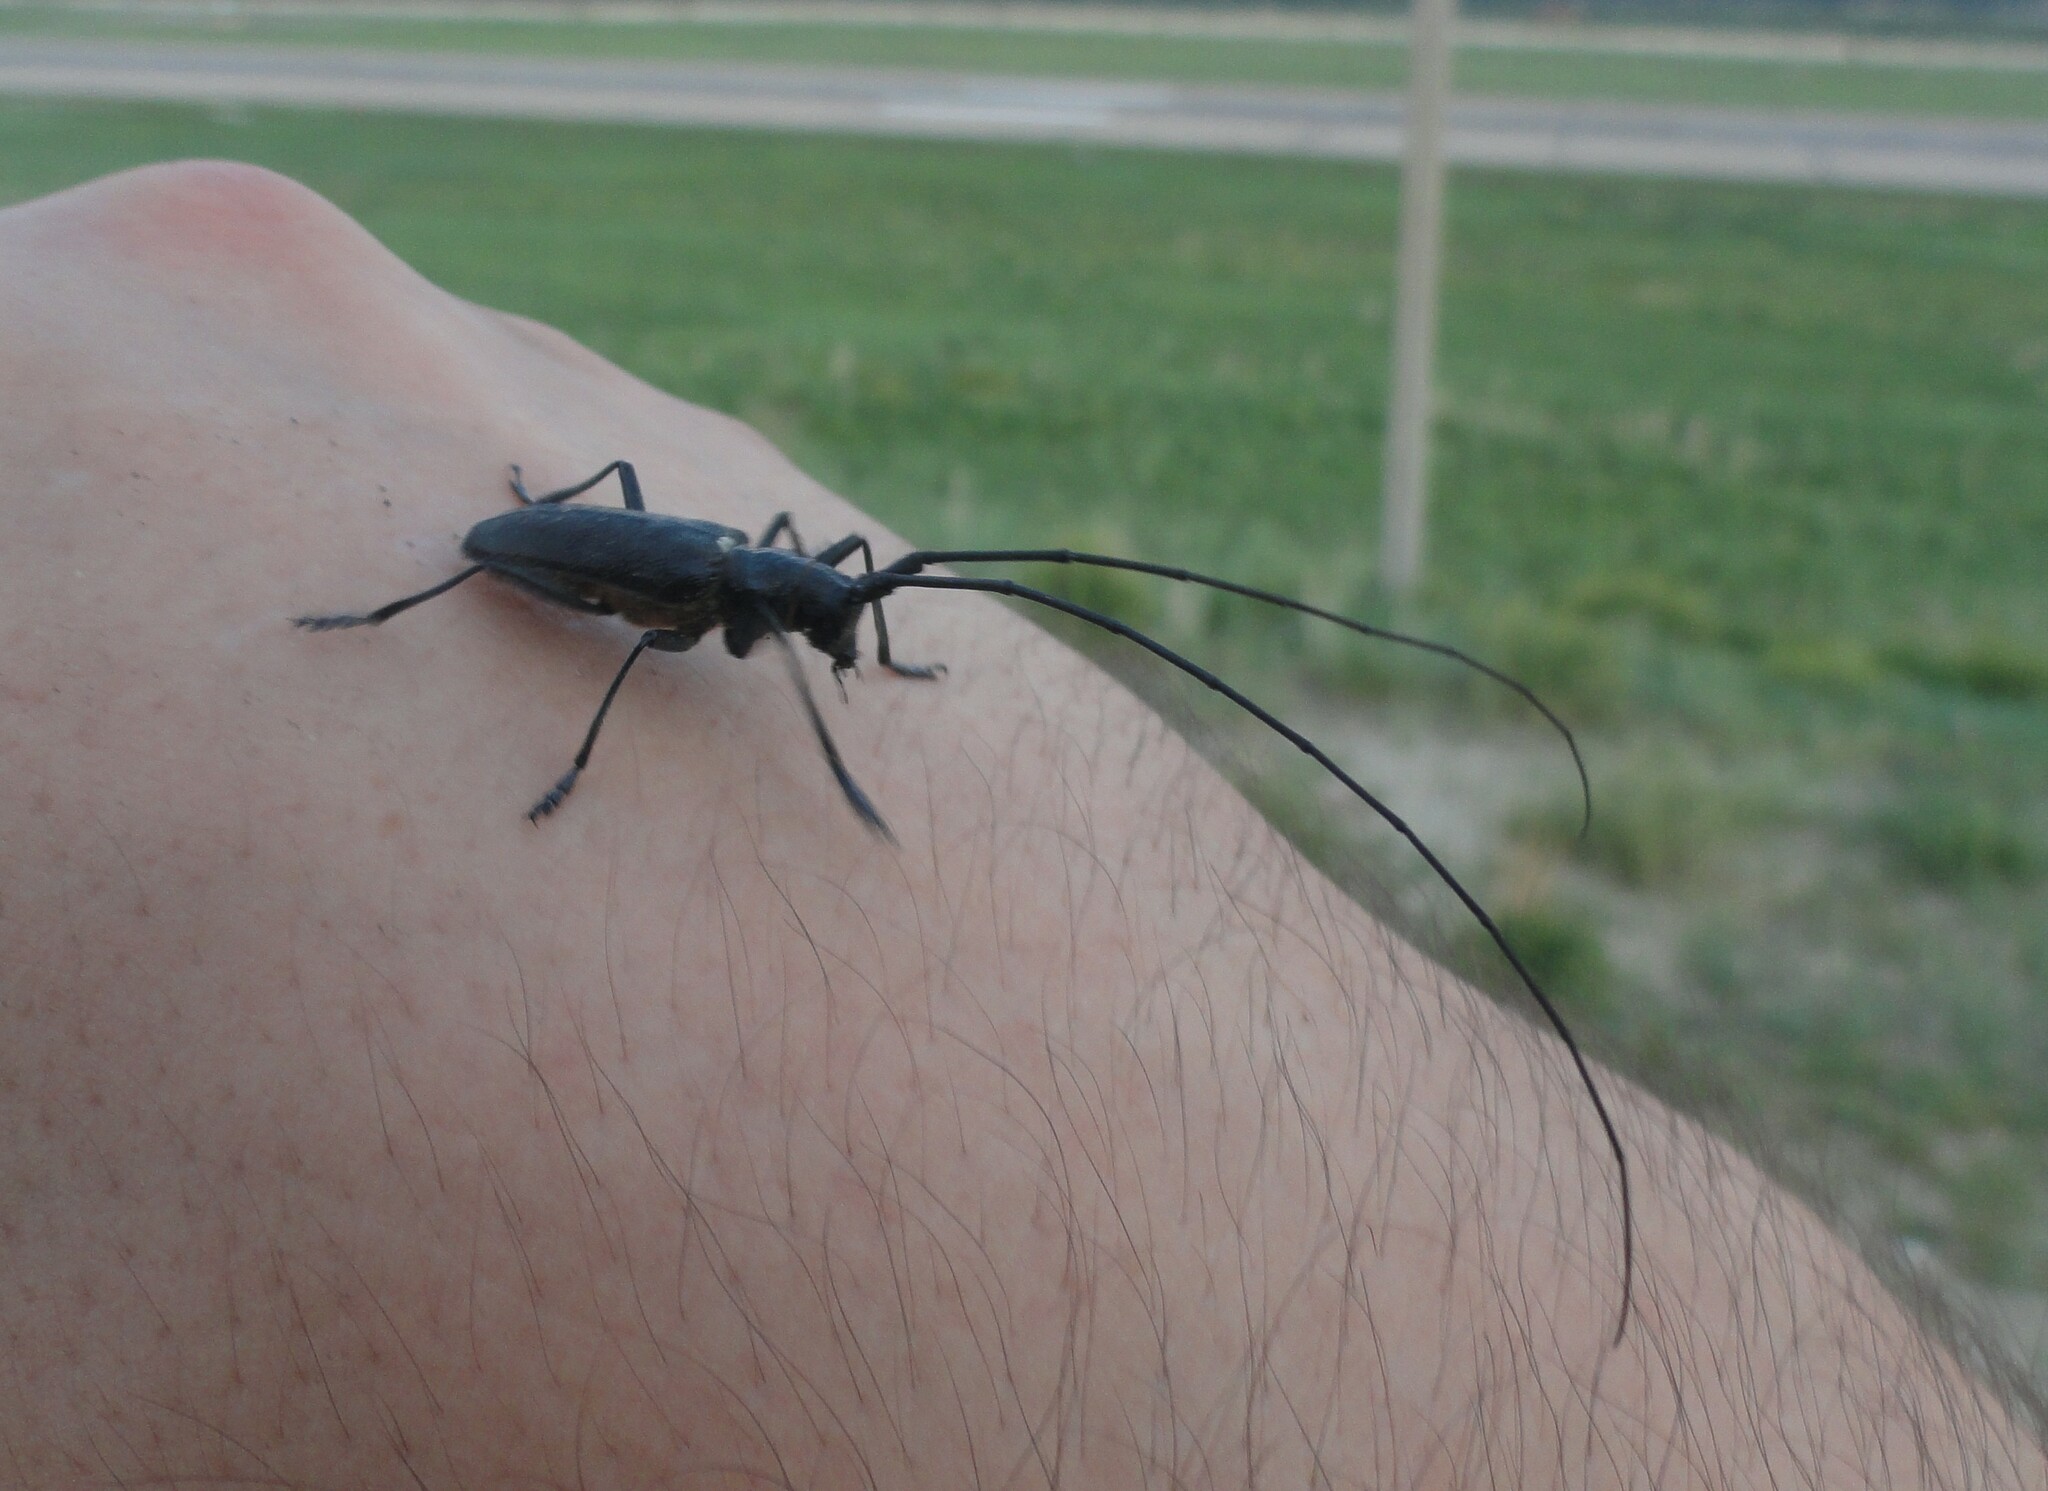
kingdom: Animalia
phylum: Arthropoda
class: Insecta
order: Coleoptera
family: Cerambycidae
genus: Monochamus
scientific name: Monochamus sutor
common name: Pine sawyer
